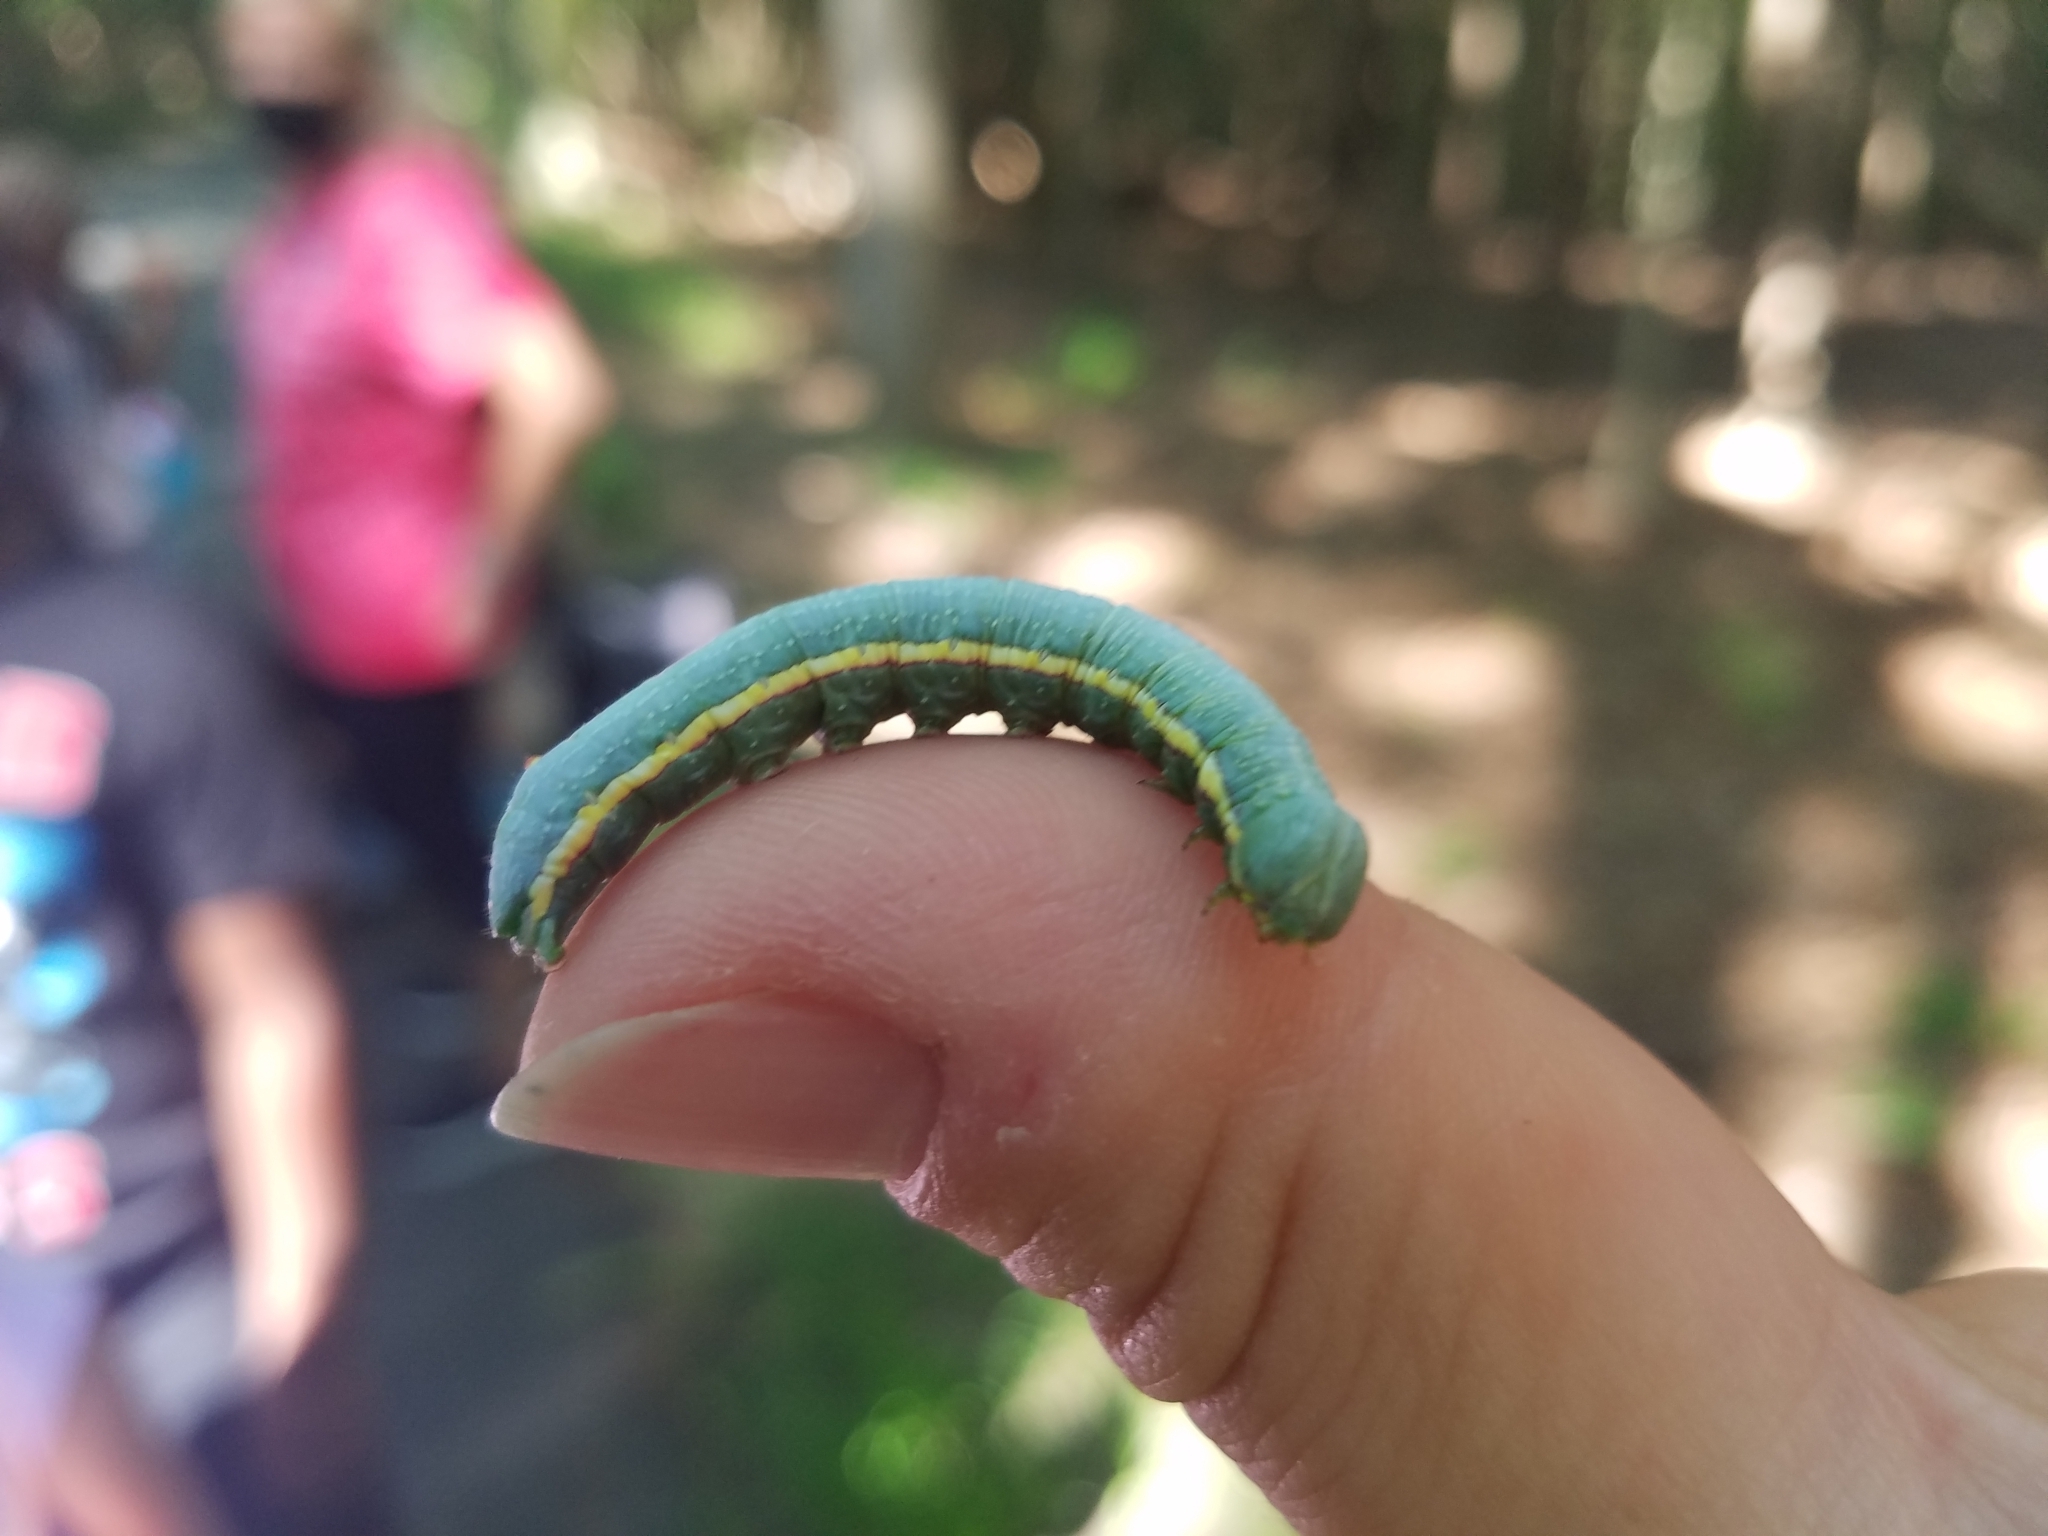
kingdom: Animalia
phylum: Arthropoda
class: Insecta
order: Lepidoptera
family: Notodontidae
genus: Paraeschra
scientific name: Paraeschra georgica
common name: Georgian prominent
